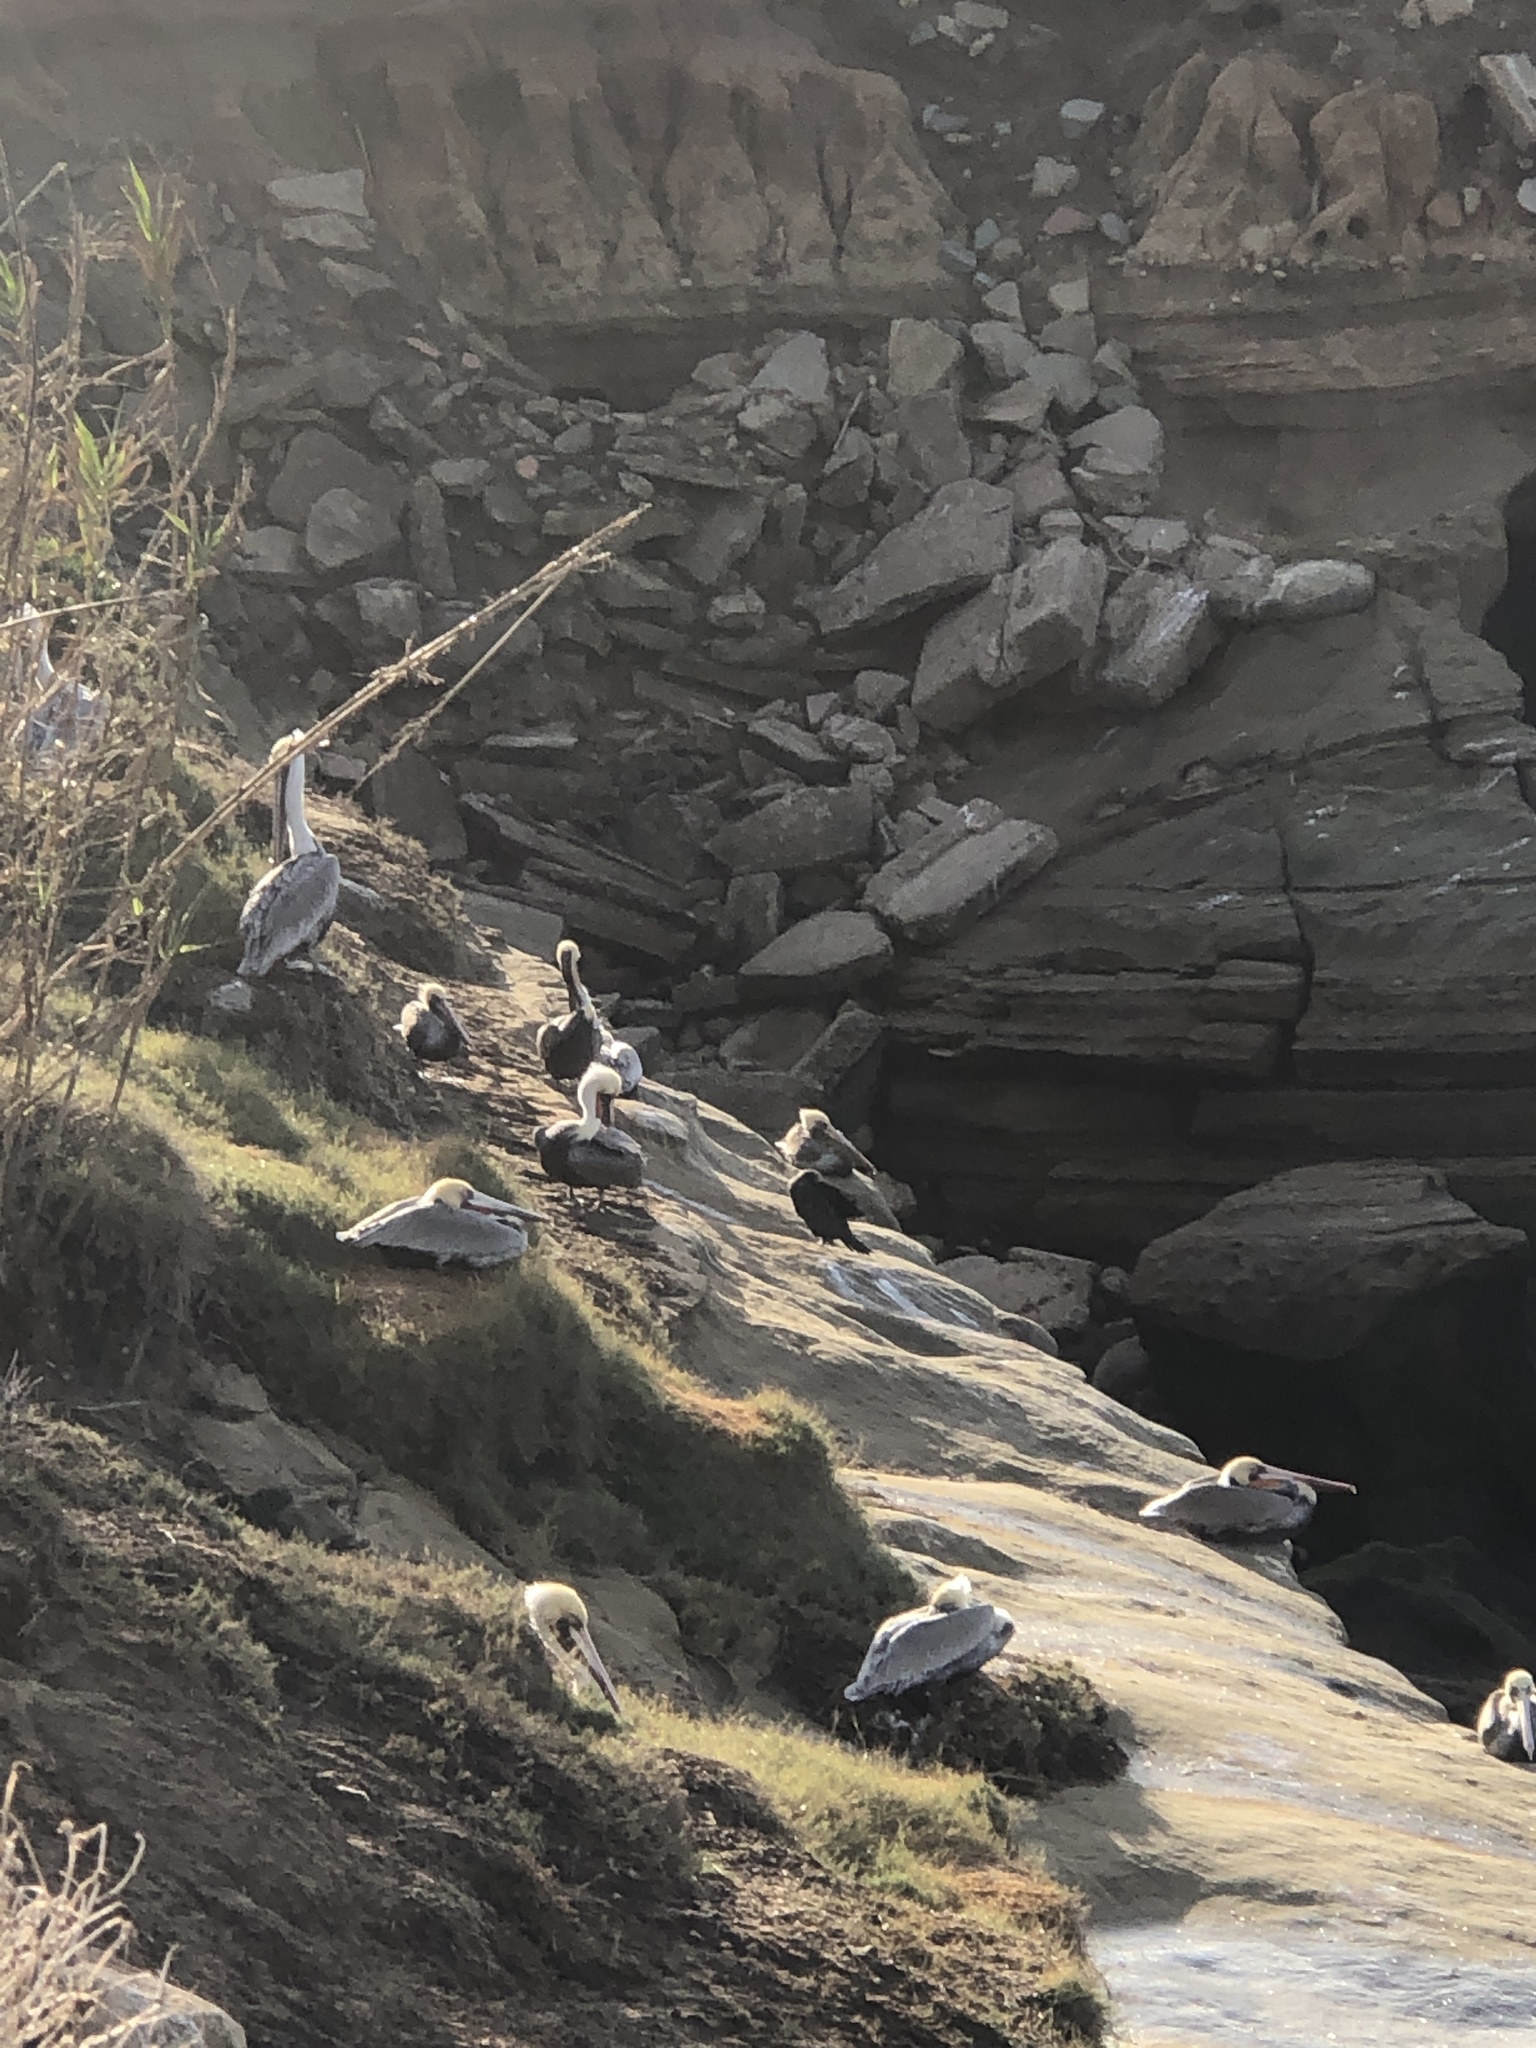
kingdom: Animalia
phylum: Chordata
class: Aves
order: Pelecaniformes
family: Pelecanidae
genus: Pelecanus
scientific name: Pelecanus occidentalis
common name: Brown pelican
